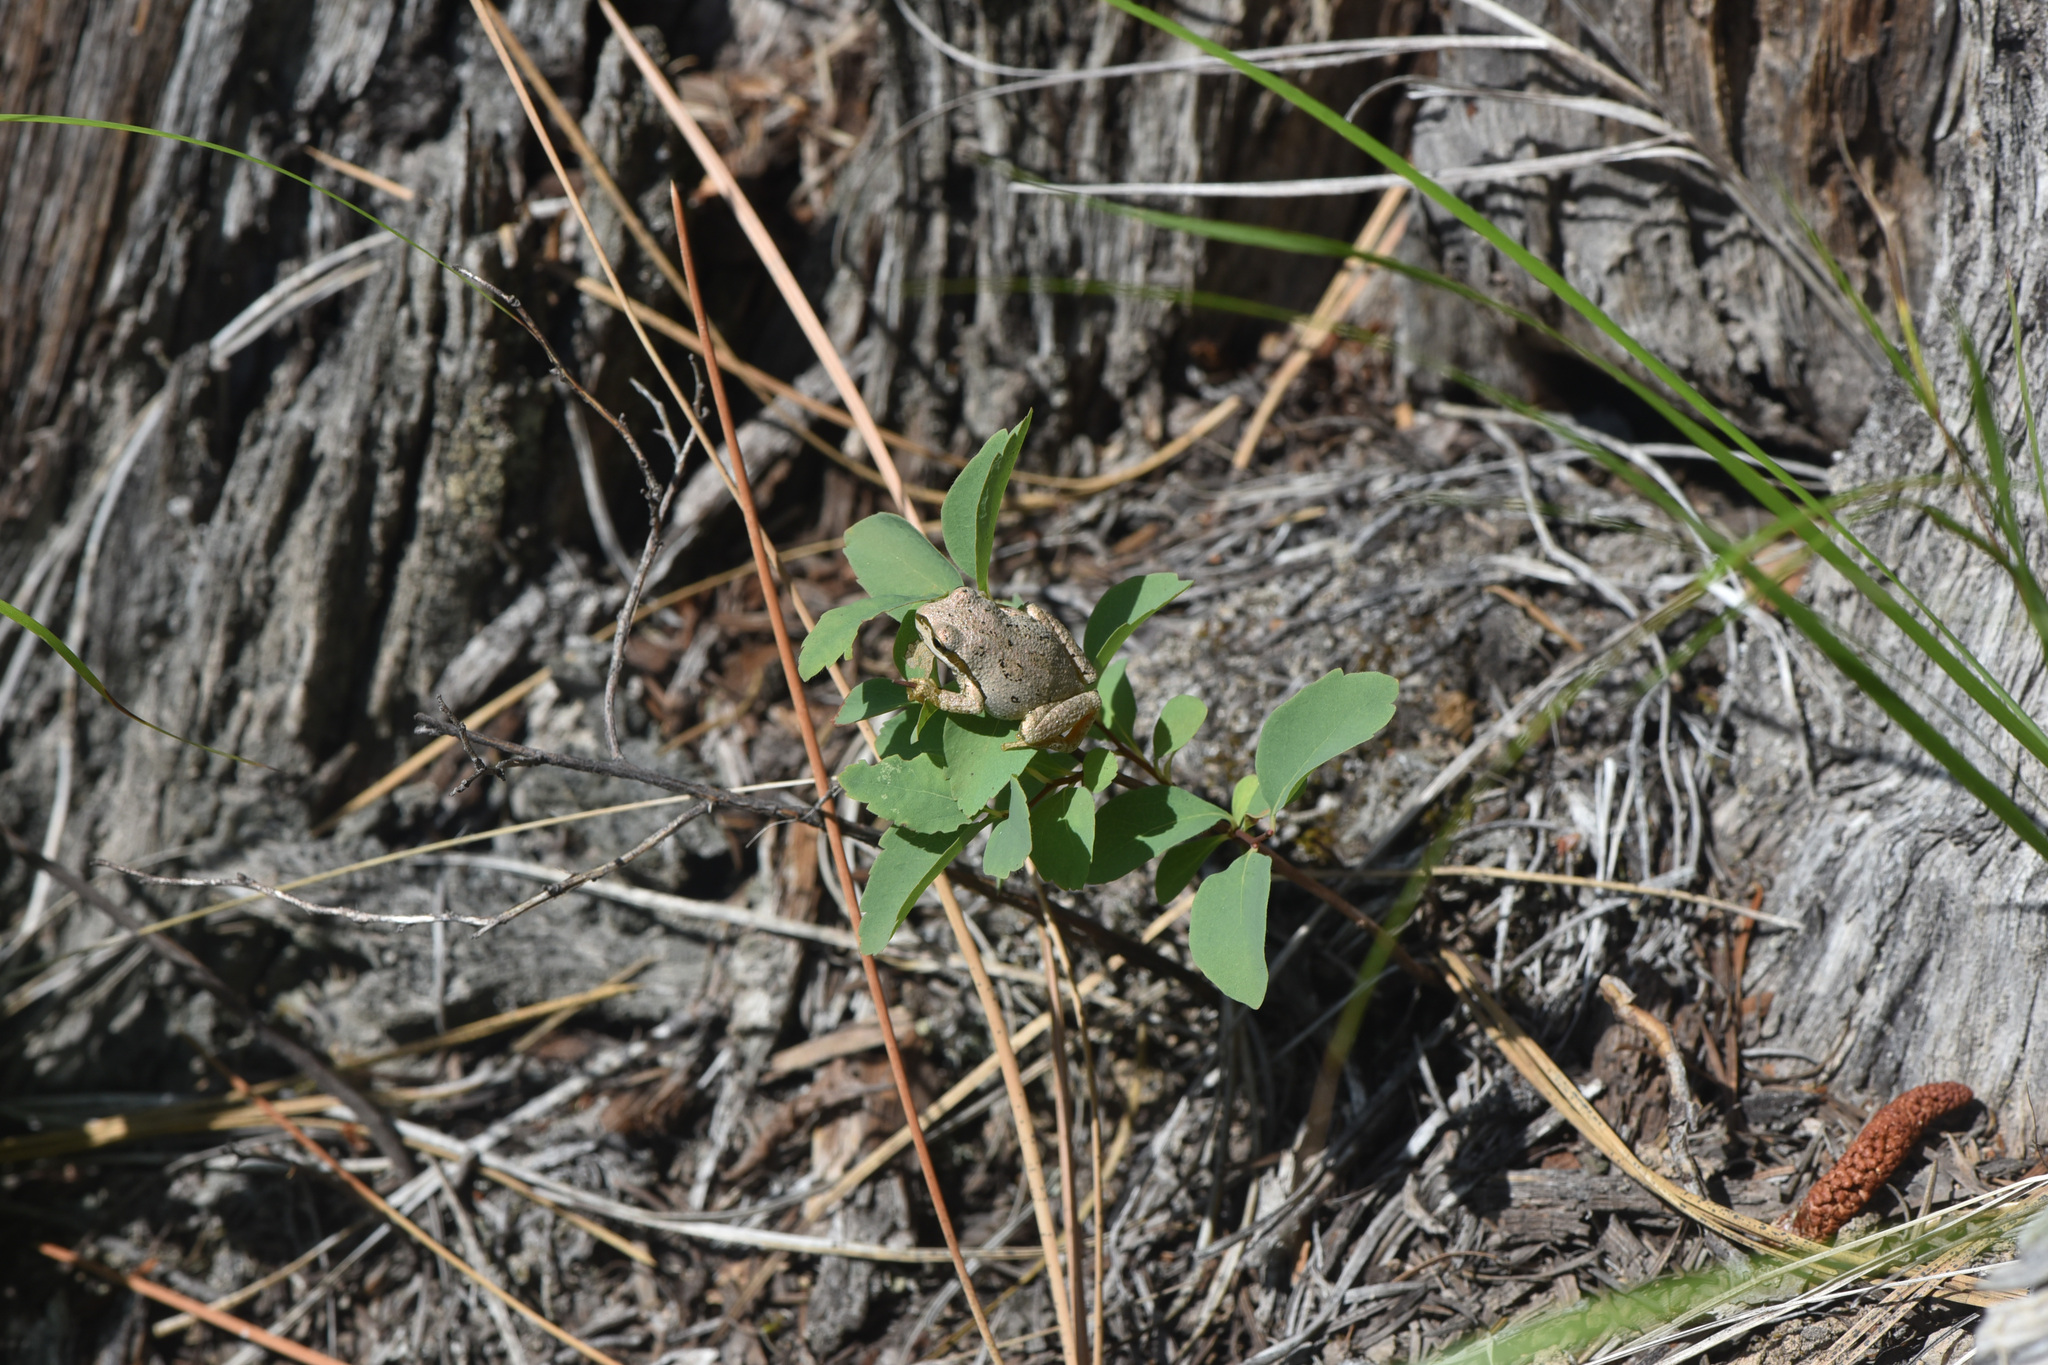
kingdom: Animalia
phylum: Chordata
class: Amphibia
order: Anura
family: Hylidae
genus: Pseudacris
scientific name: Pseudacris regilla
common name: Pacific chorus frog
